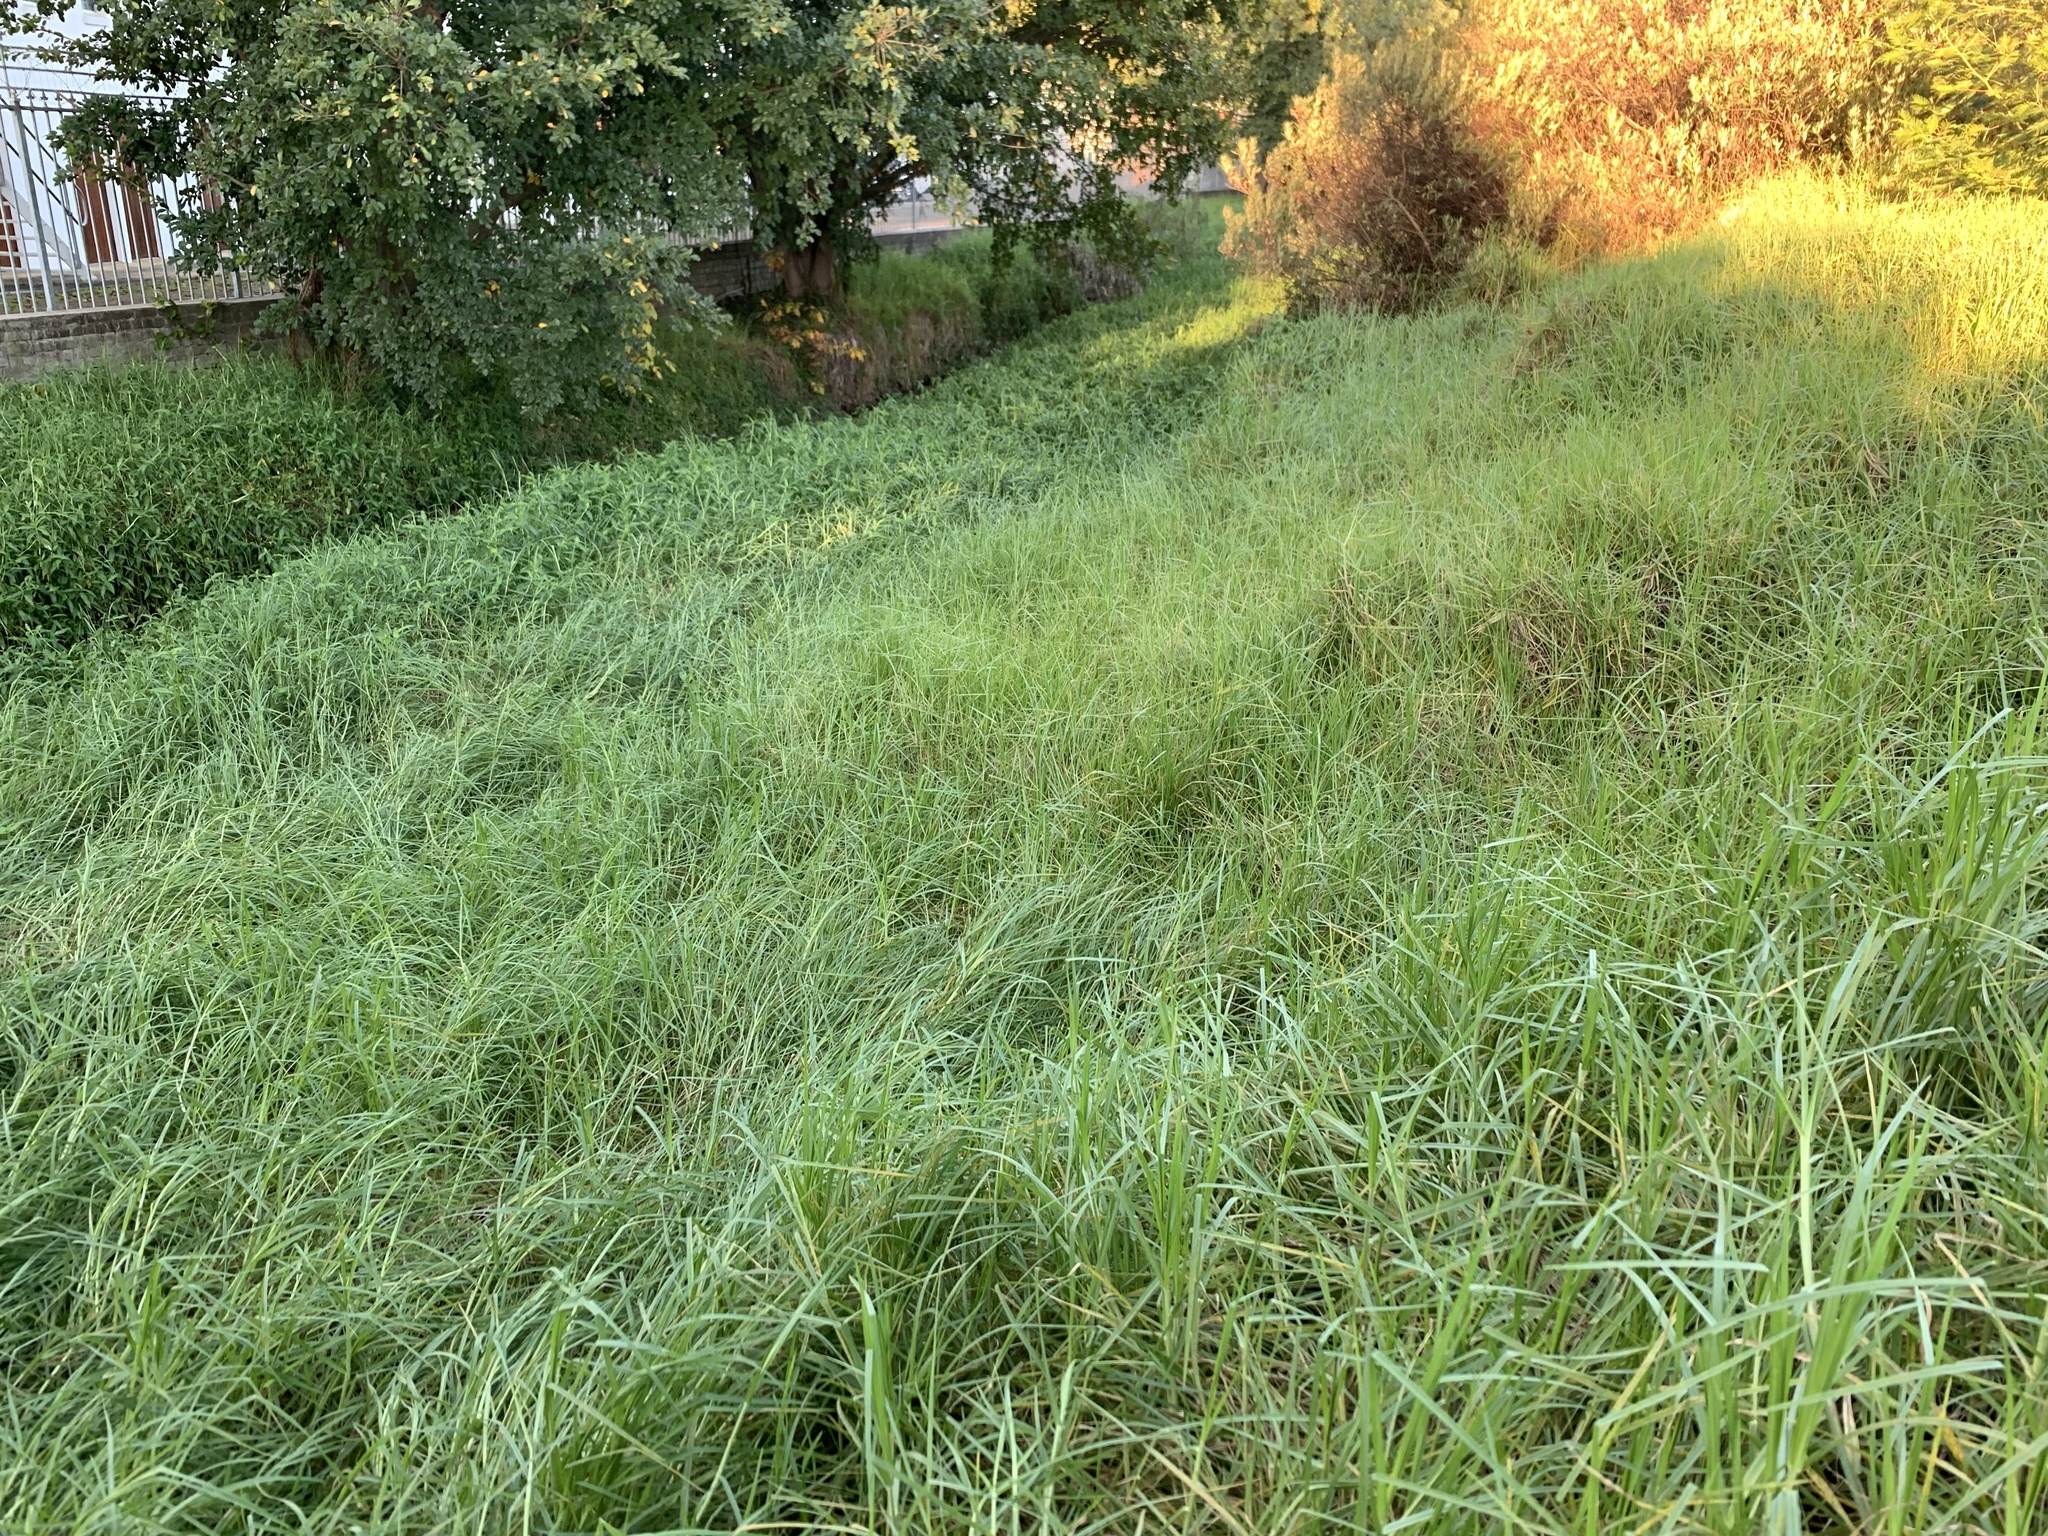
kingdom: Plantae
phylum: Tracheophyta
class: Liliopsida
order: Poales
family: Poaceae
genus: Cenchrus
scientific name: Cenchrus clandestinus
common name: Kikuyugrass
